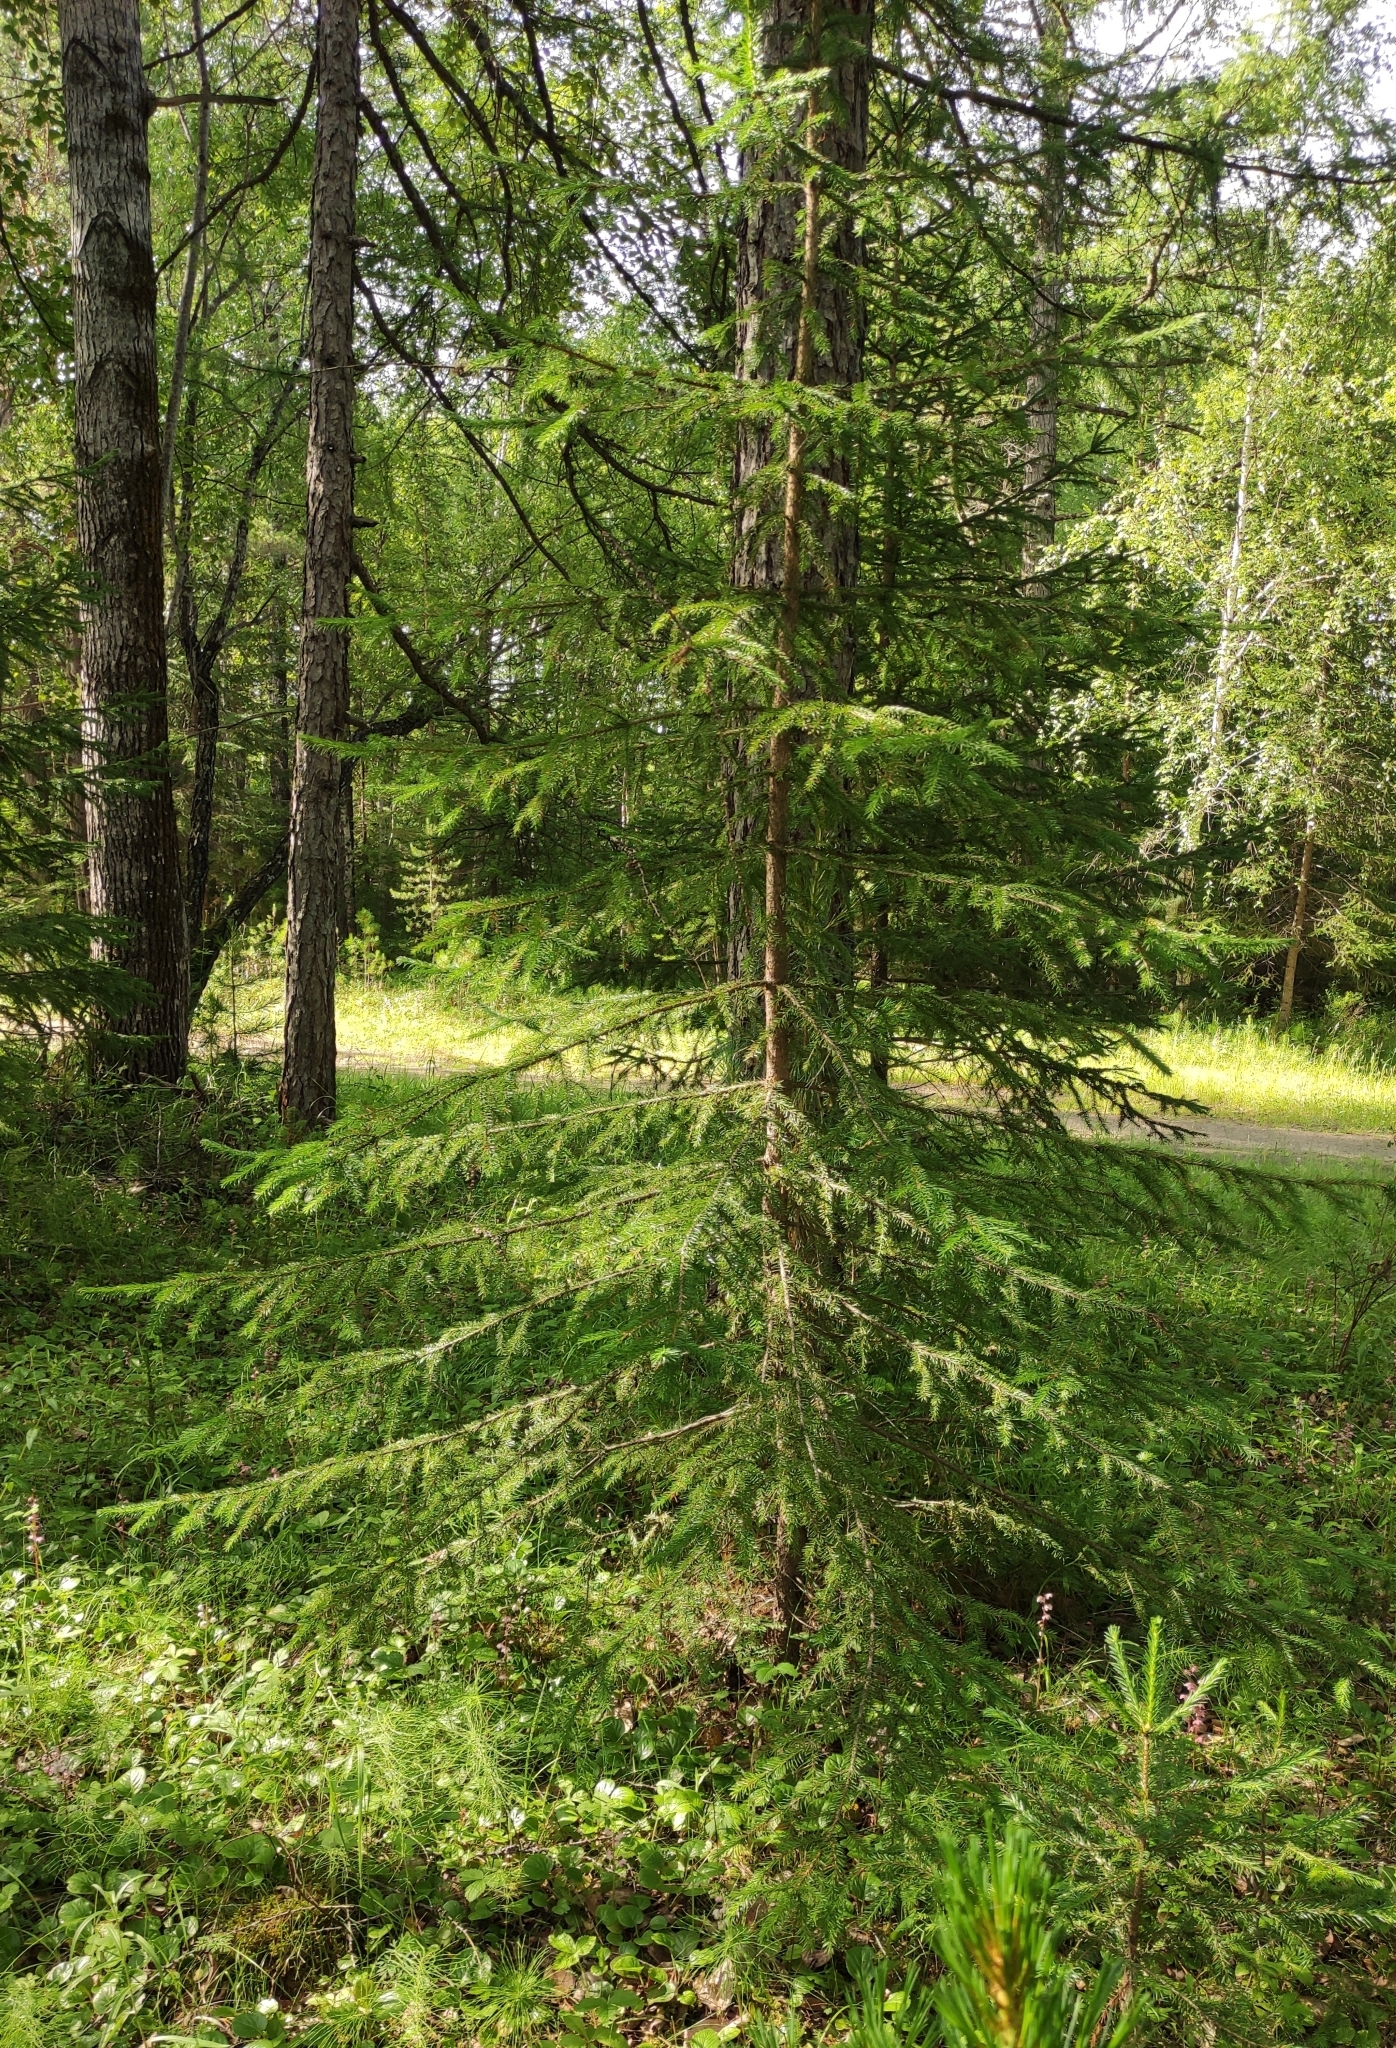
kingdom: Plantae
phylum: Tracheophyta
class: Pinopsida
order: Pinales
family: Pinaceae
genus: Picea
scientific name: Picea obovata
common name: Siberian spruce
